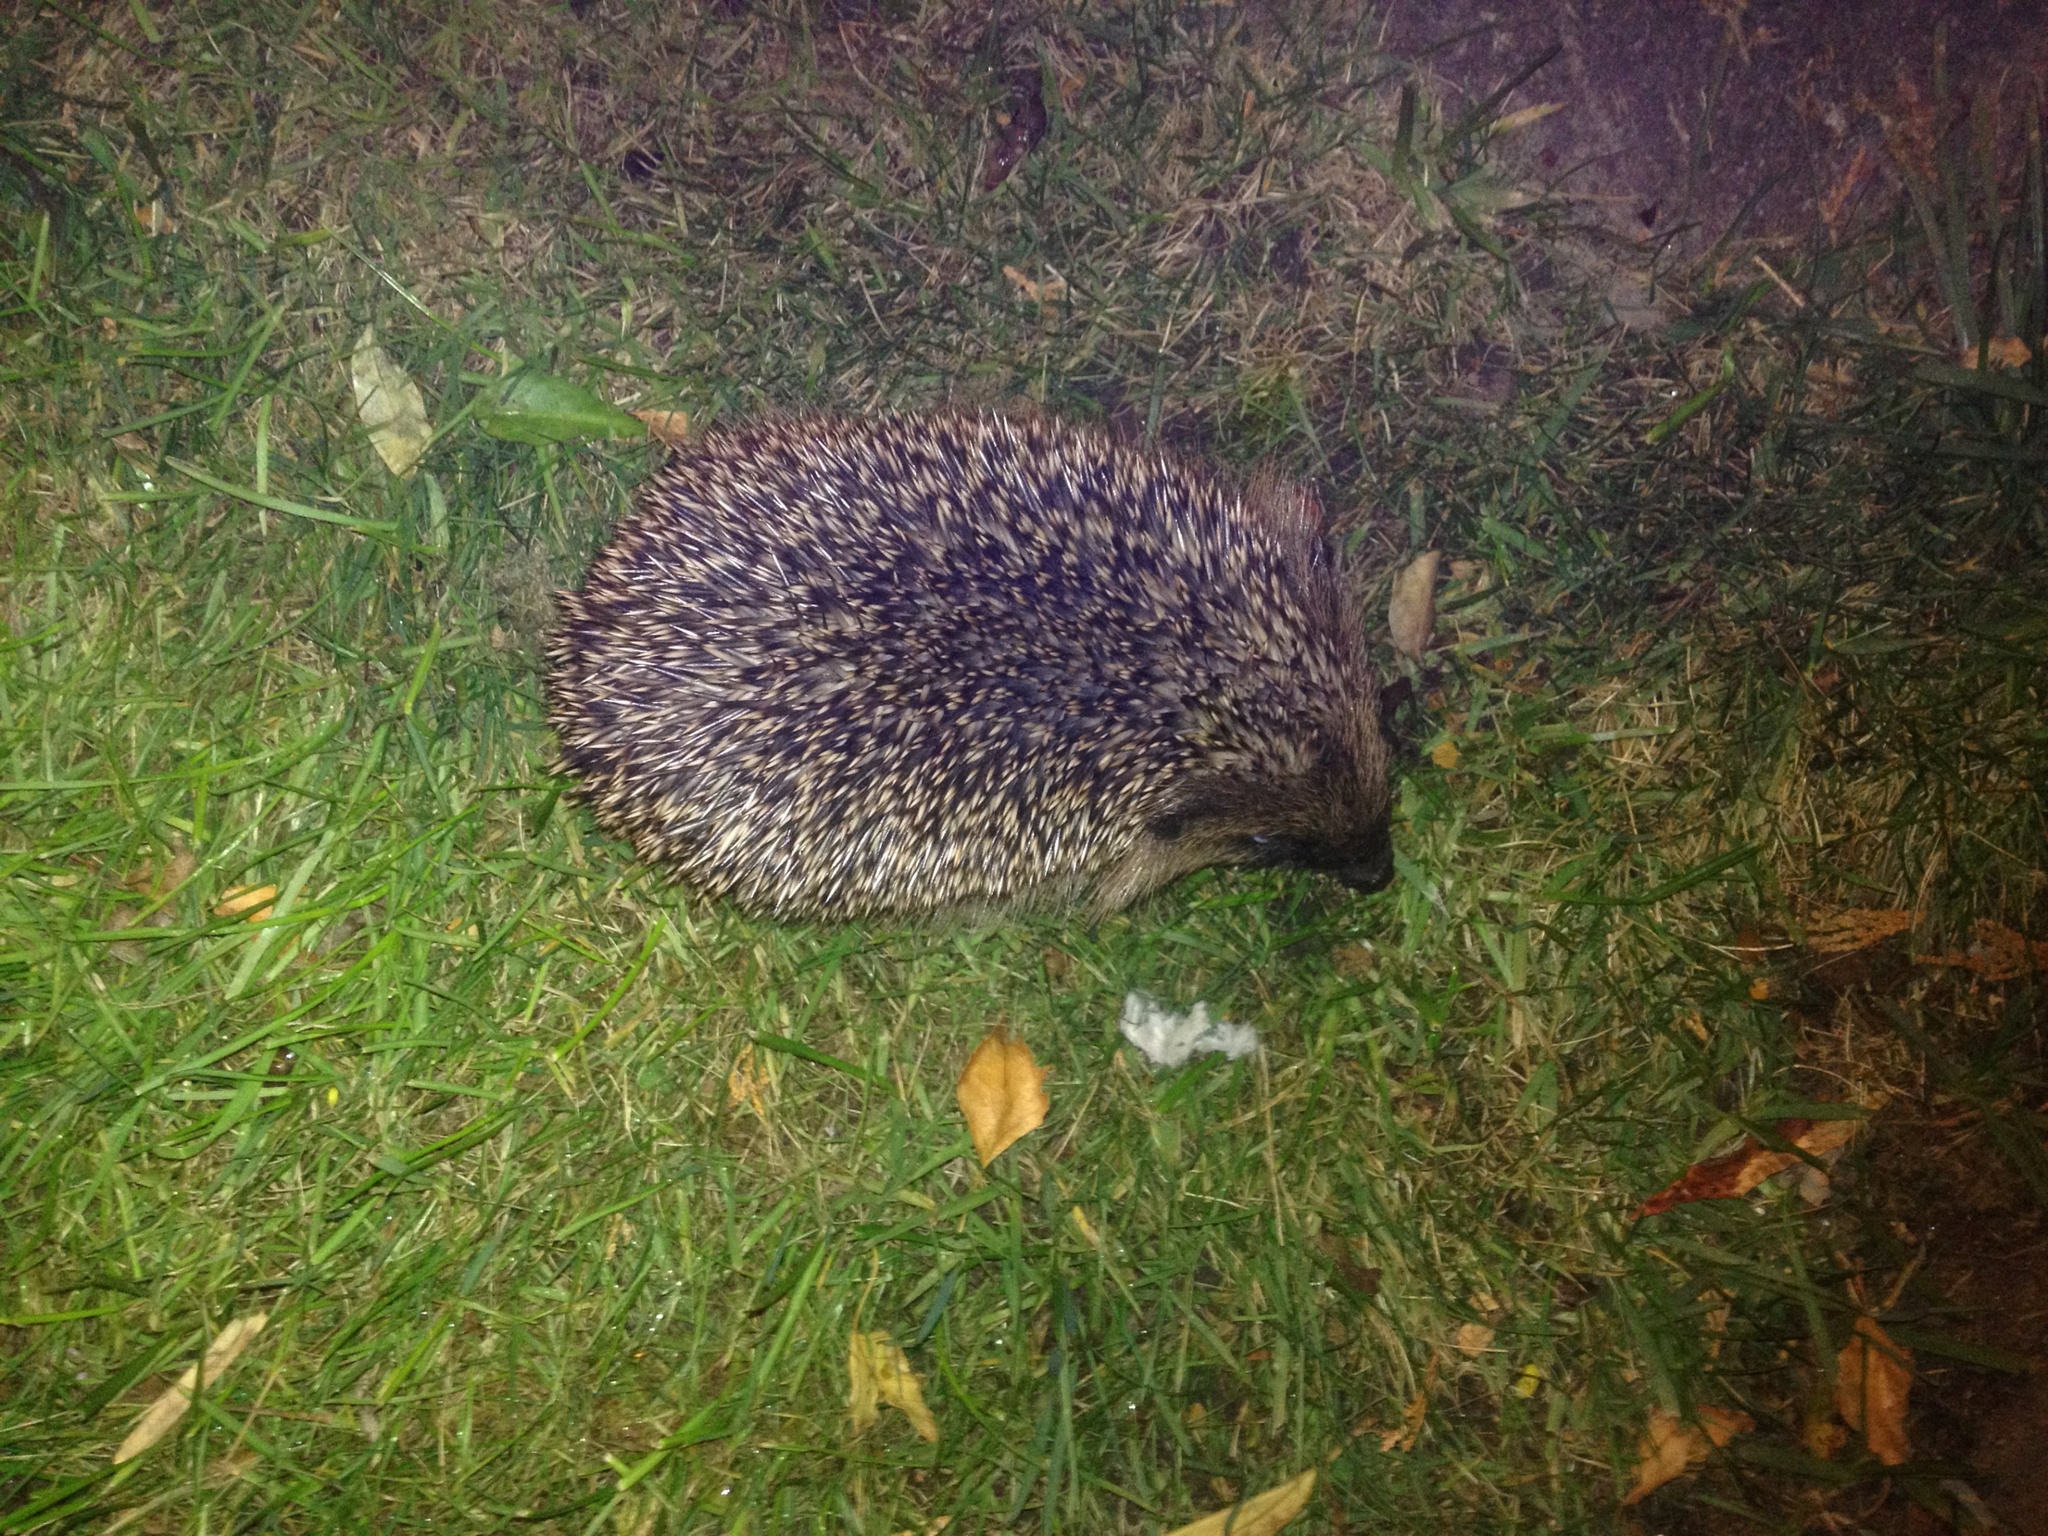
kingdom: Animalia
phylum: Chordata
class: Mammalia
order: Erinaceomorpha
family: Erinaceidae
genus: Erinaceus
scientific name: Erinaceus europaeus
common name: West european hedgehog
